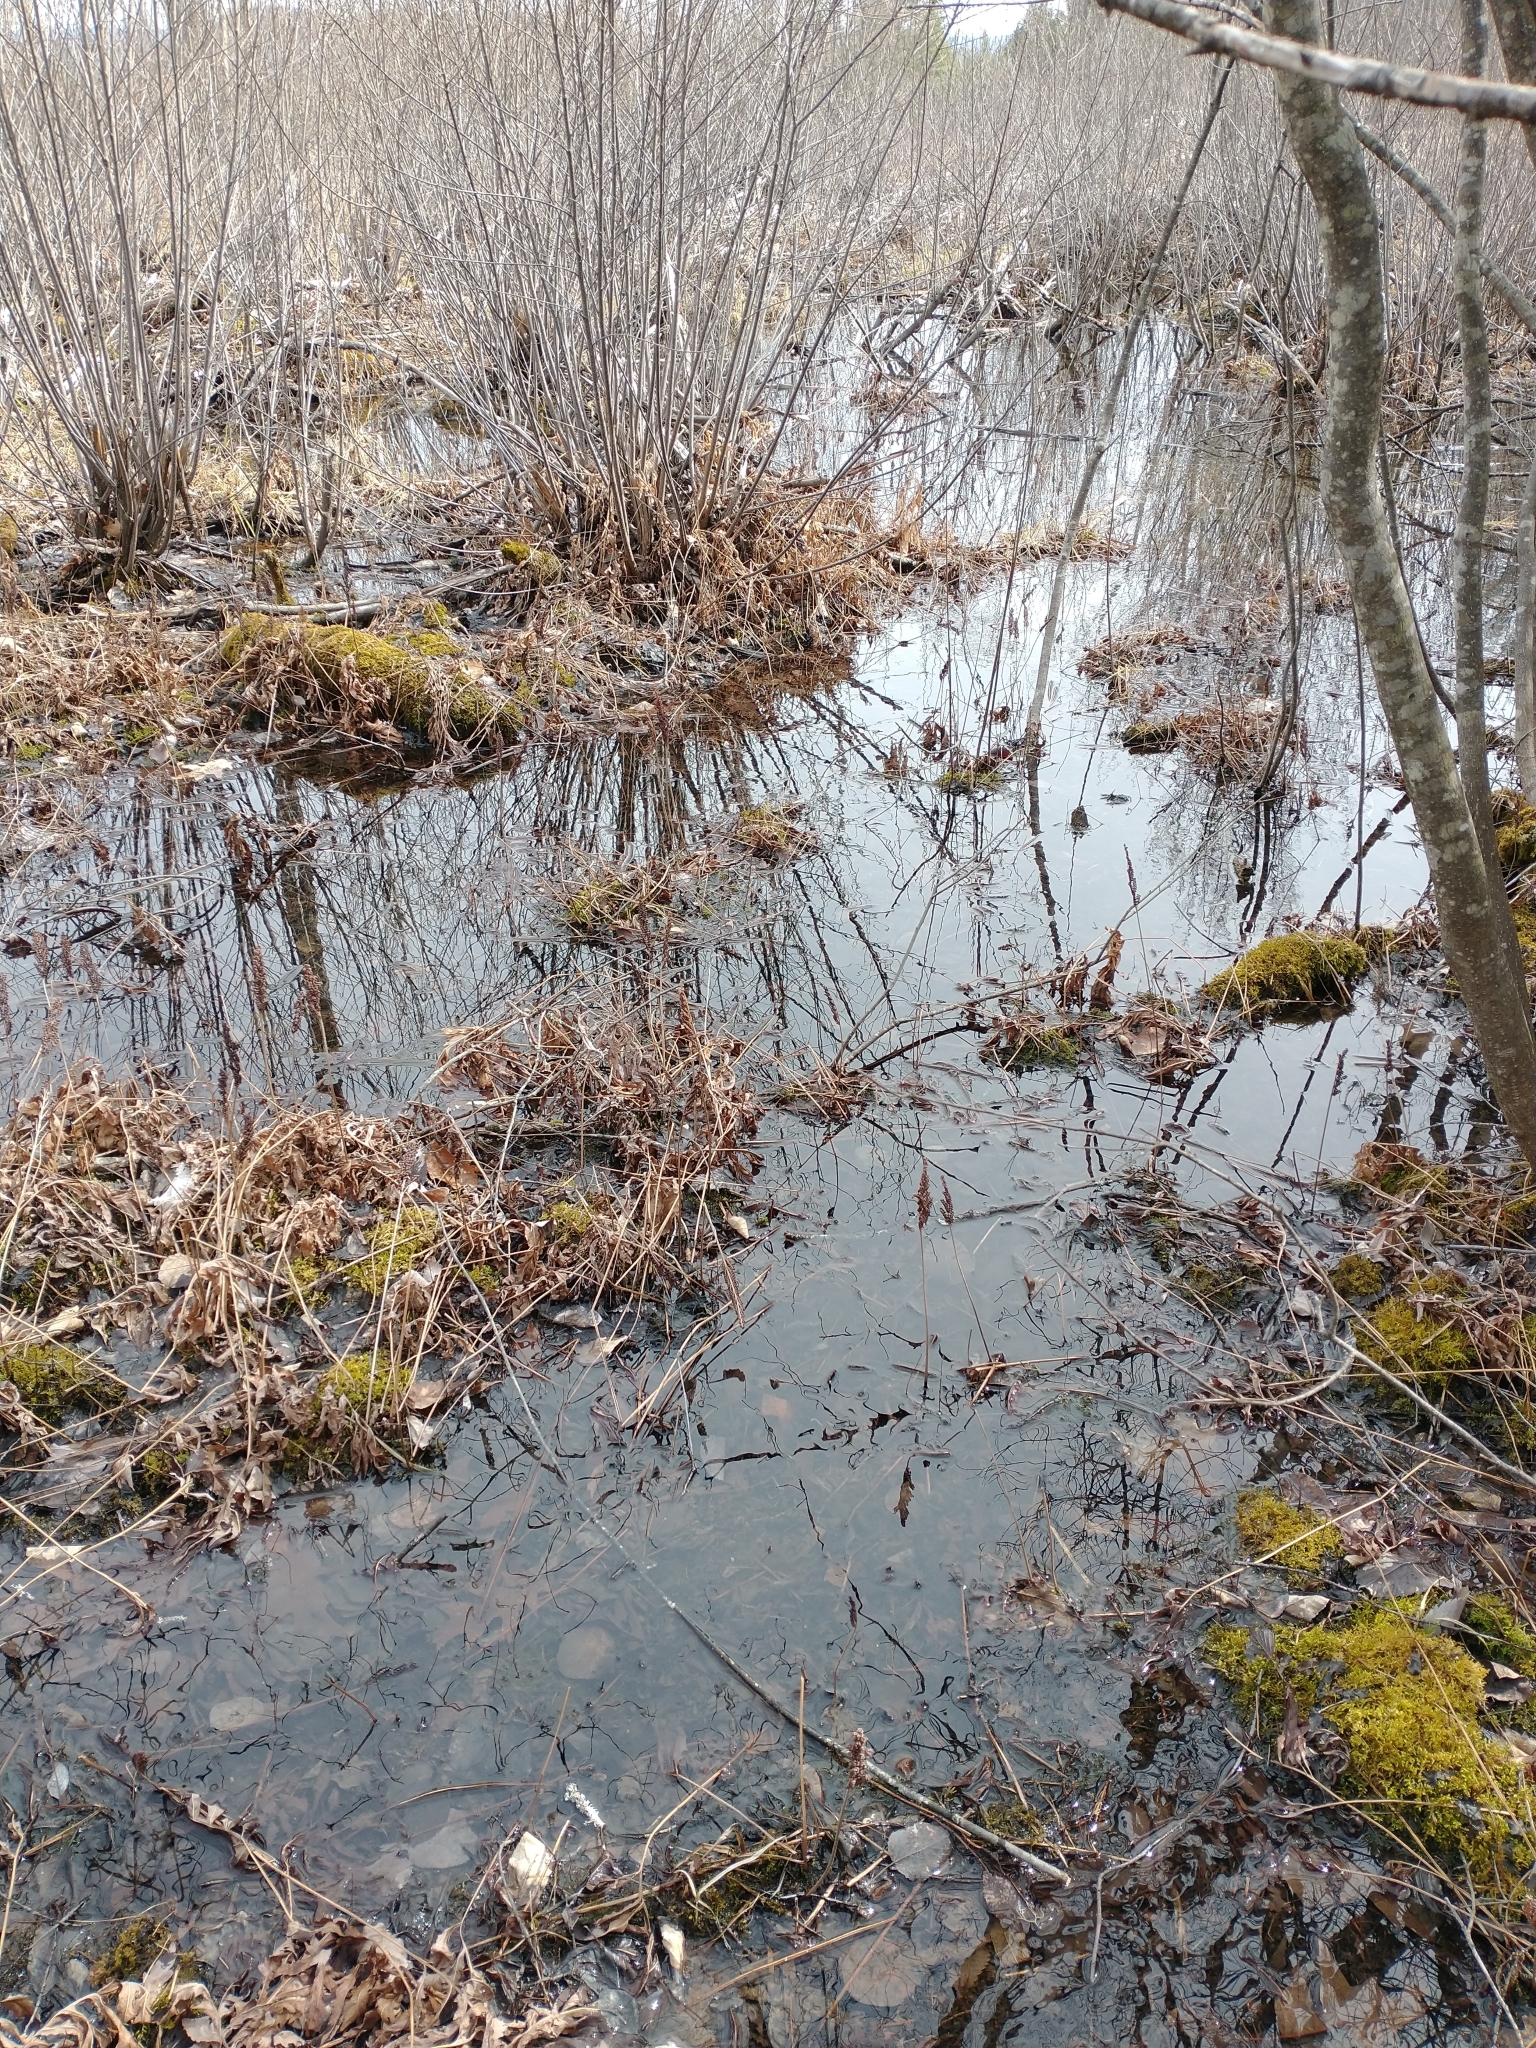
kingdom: Animalia
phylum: Chordata
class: Amphibia
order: Anura
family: Ranidae
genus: Lithobates
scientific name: Lithobates sylvaticus
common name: Wood frog
